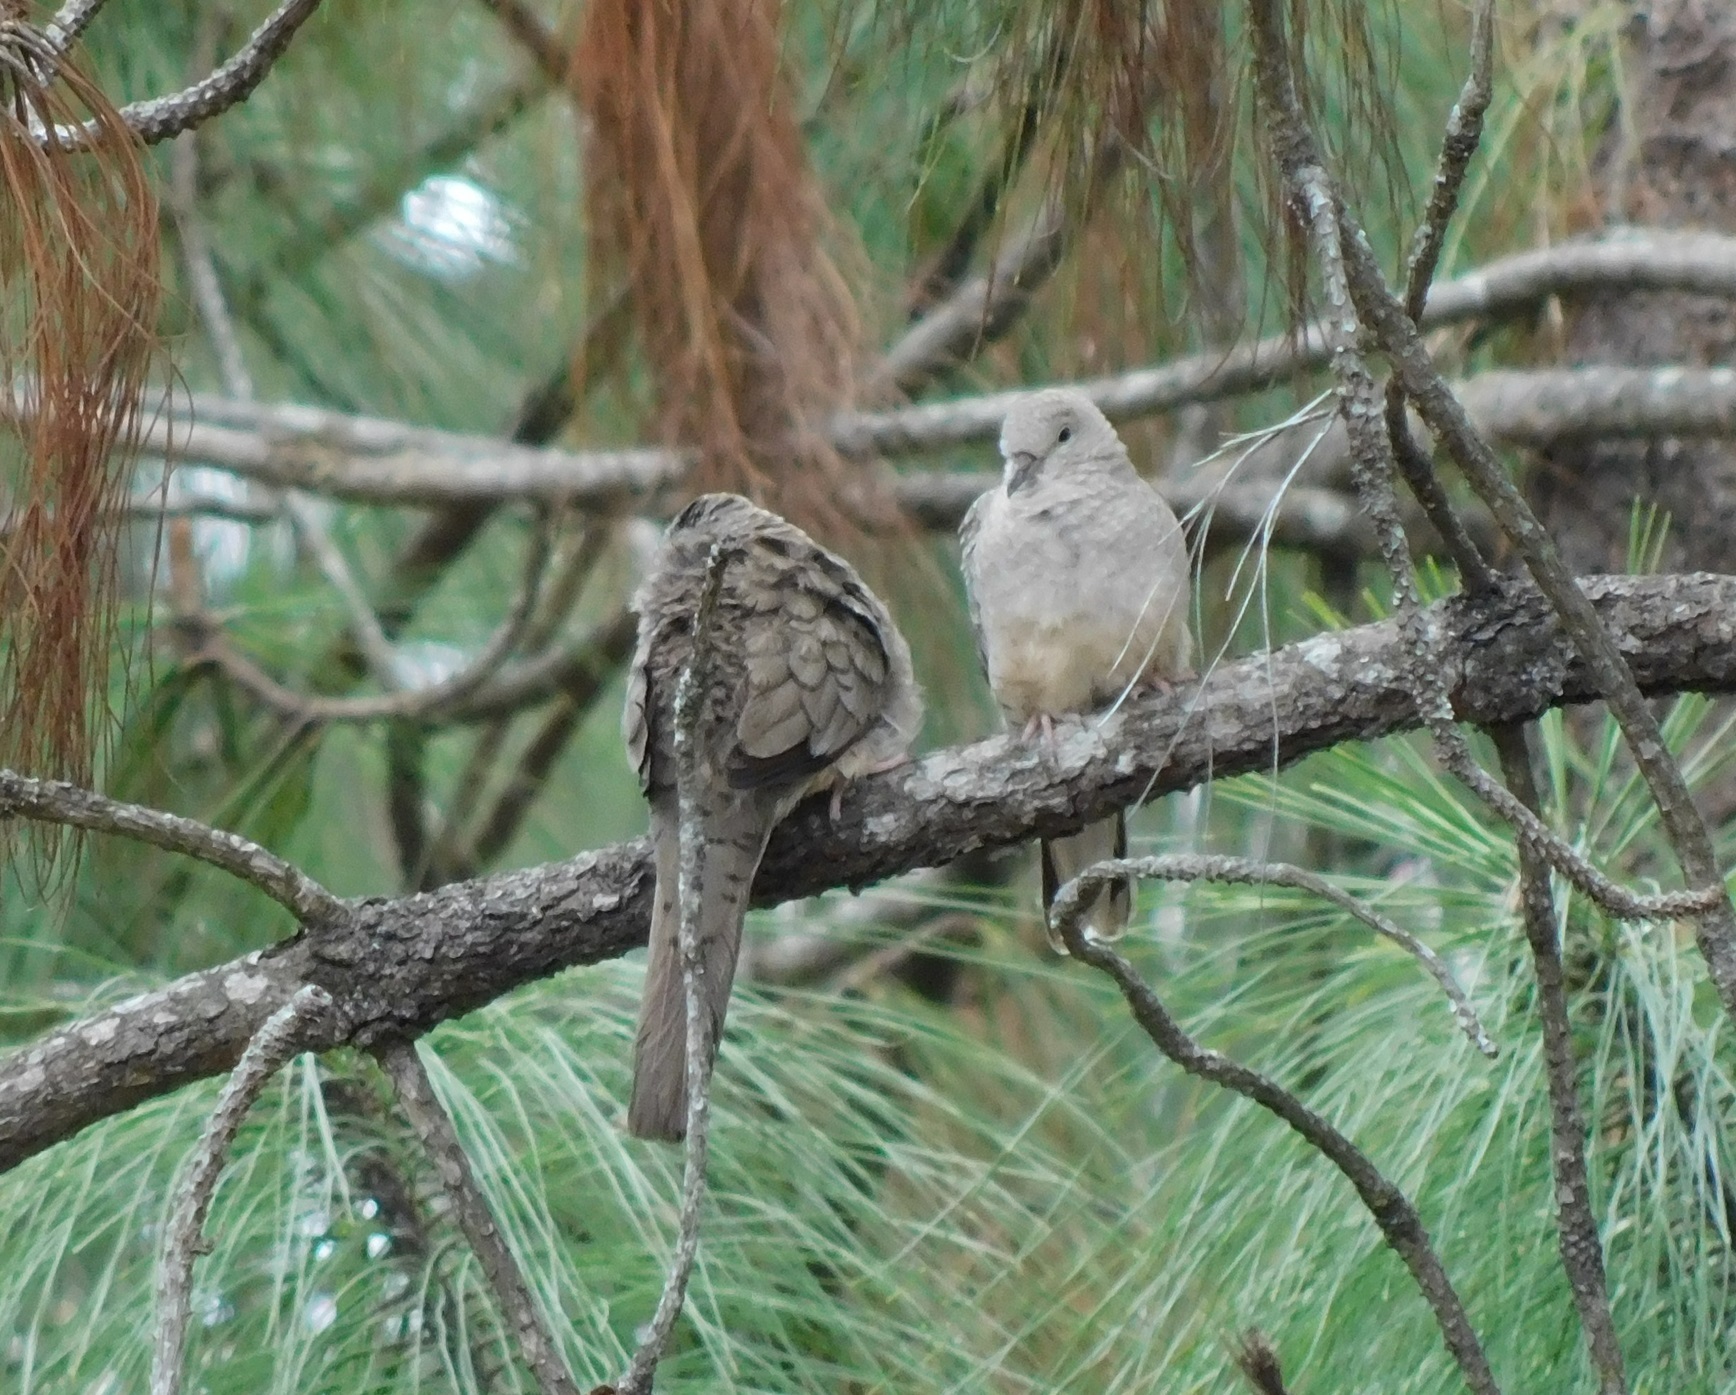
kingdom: Animalia
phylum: Chordata
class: Aves
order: Columbiformes
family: Columbidae
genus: Columbina
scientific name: Columbina inca
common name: Inca dove
